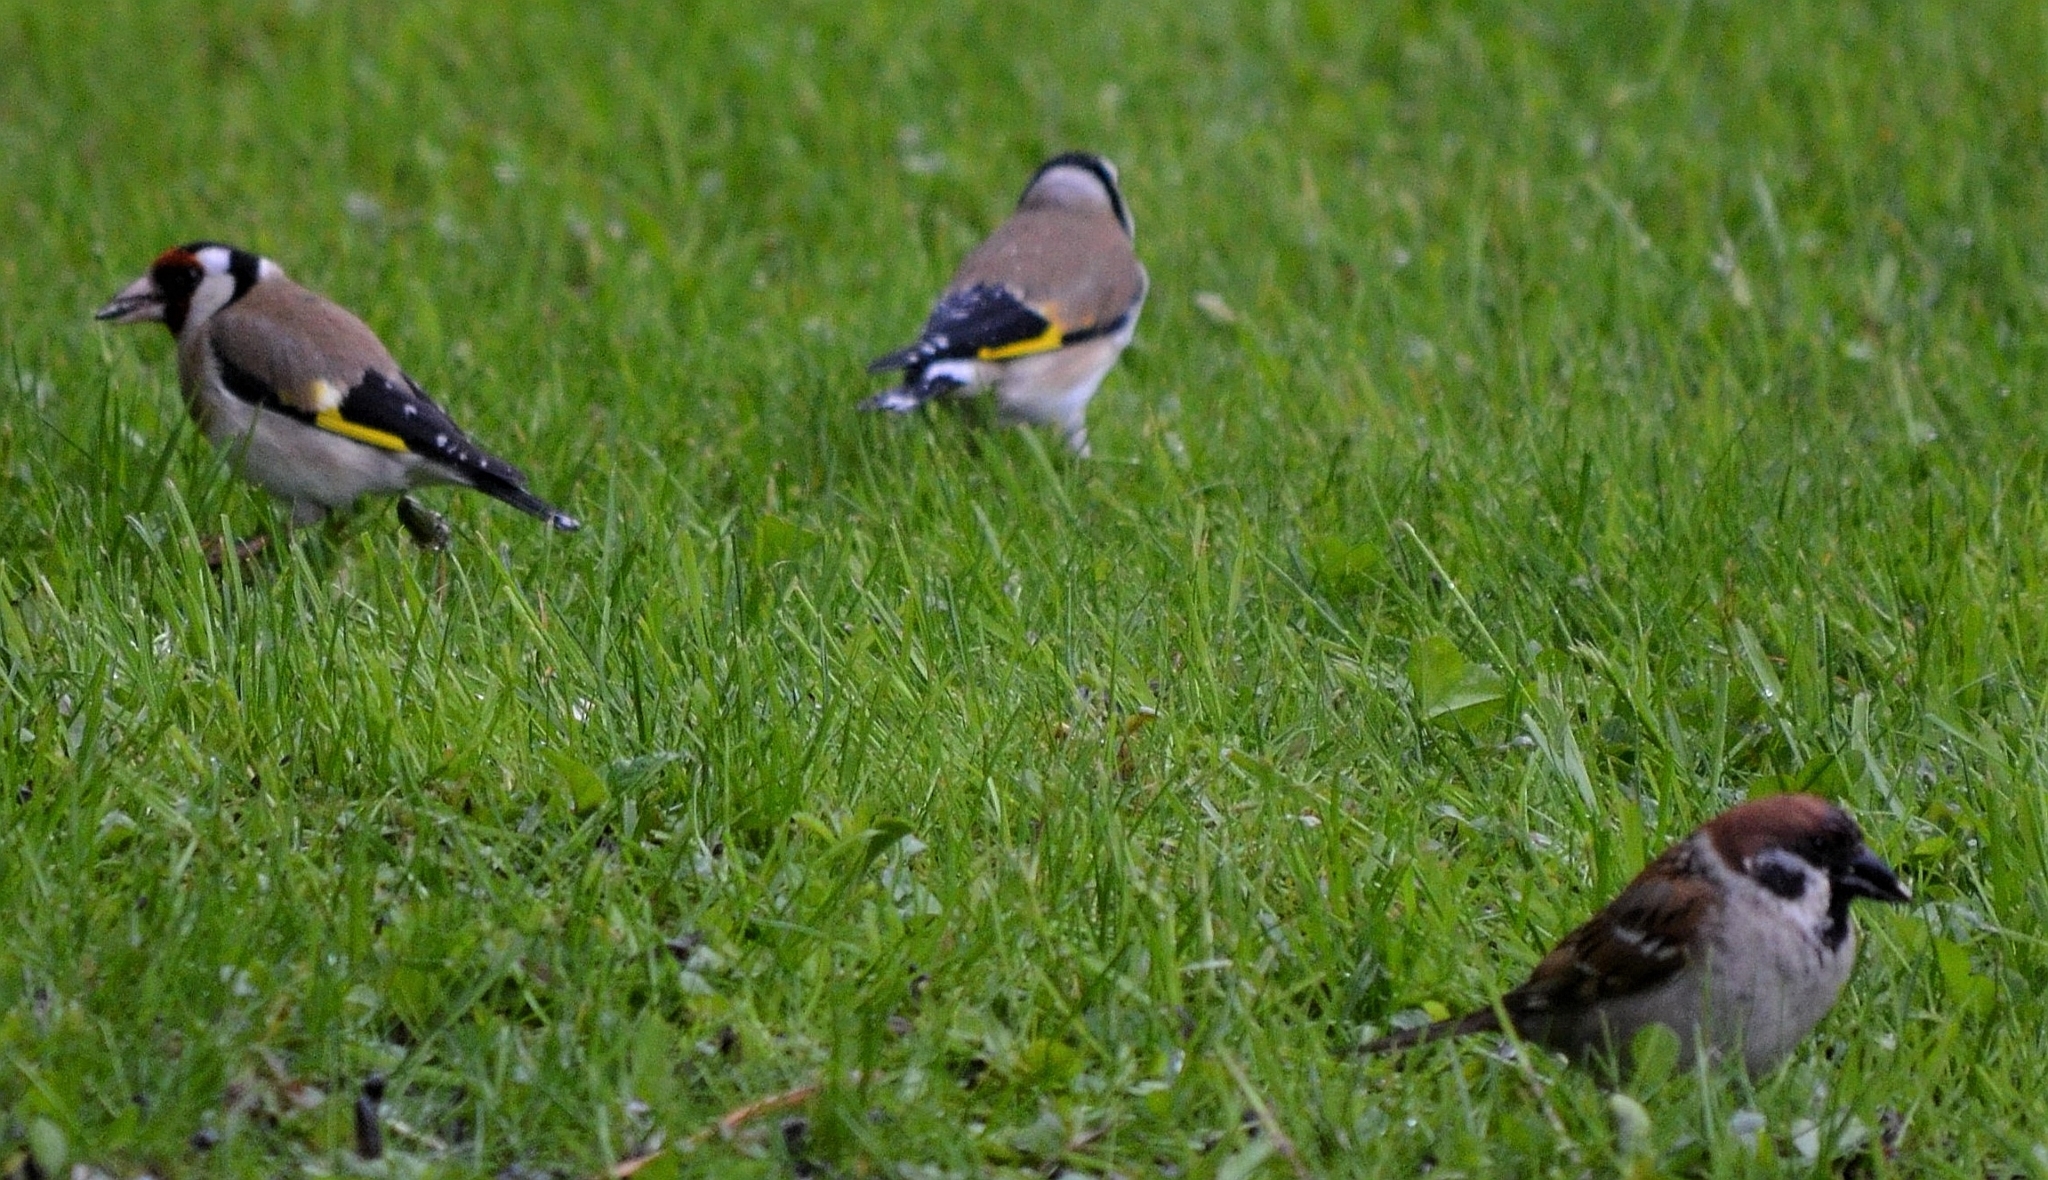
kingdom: Animalia
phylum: Chordata
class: Aves
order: Passeriformes
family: Fringillidae
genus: Carduelis
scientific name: Carduelis carduelis
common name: European goldfinch
